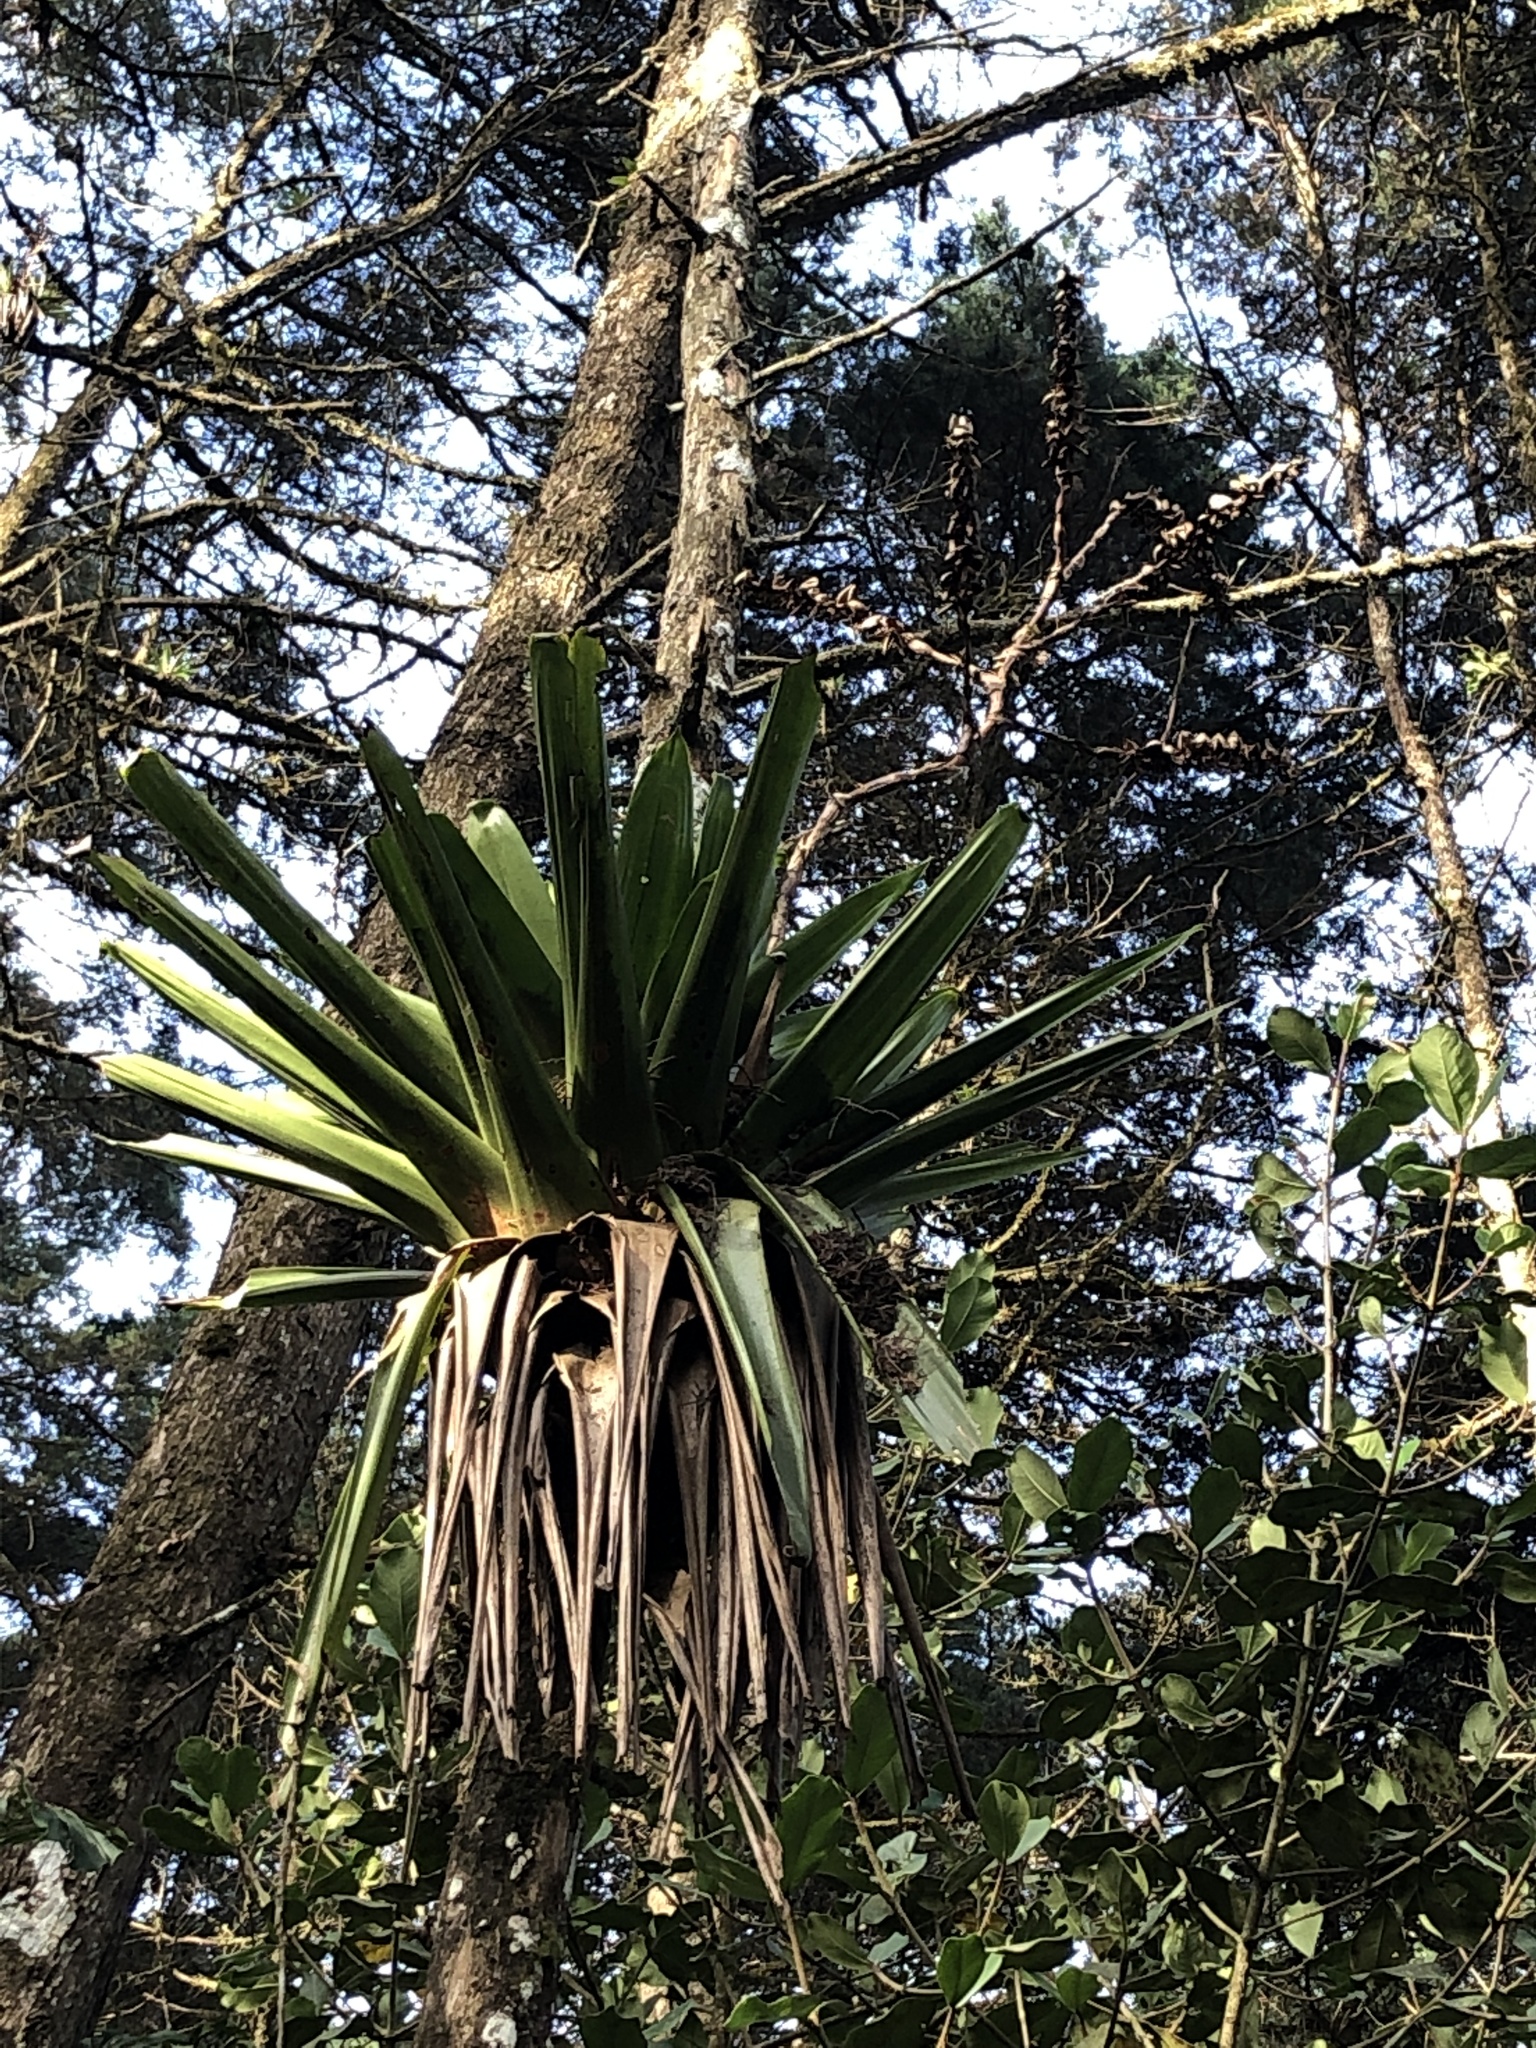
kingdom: Plantae
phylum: Tracheophyta
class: Liliopsida
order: Poales
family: Bromeliaceae
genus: Werauhia
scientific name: Werauhia werckleana
